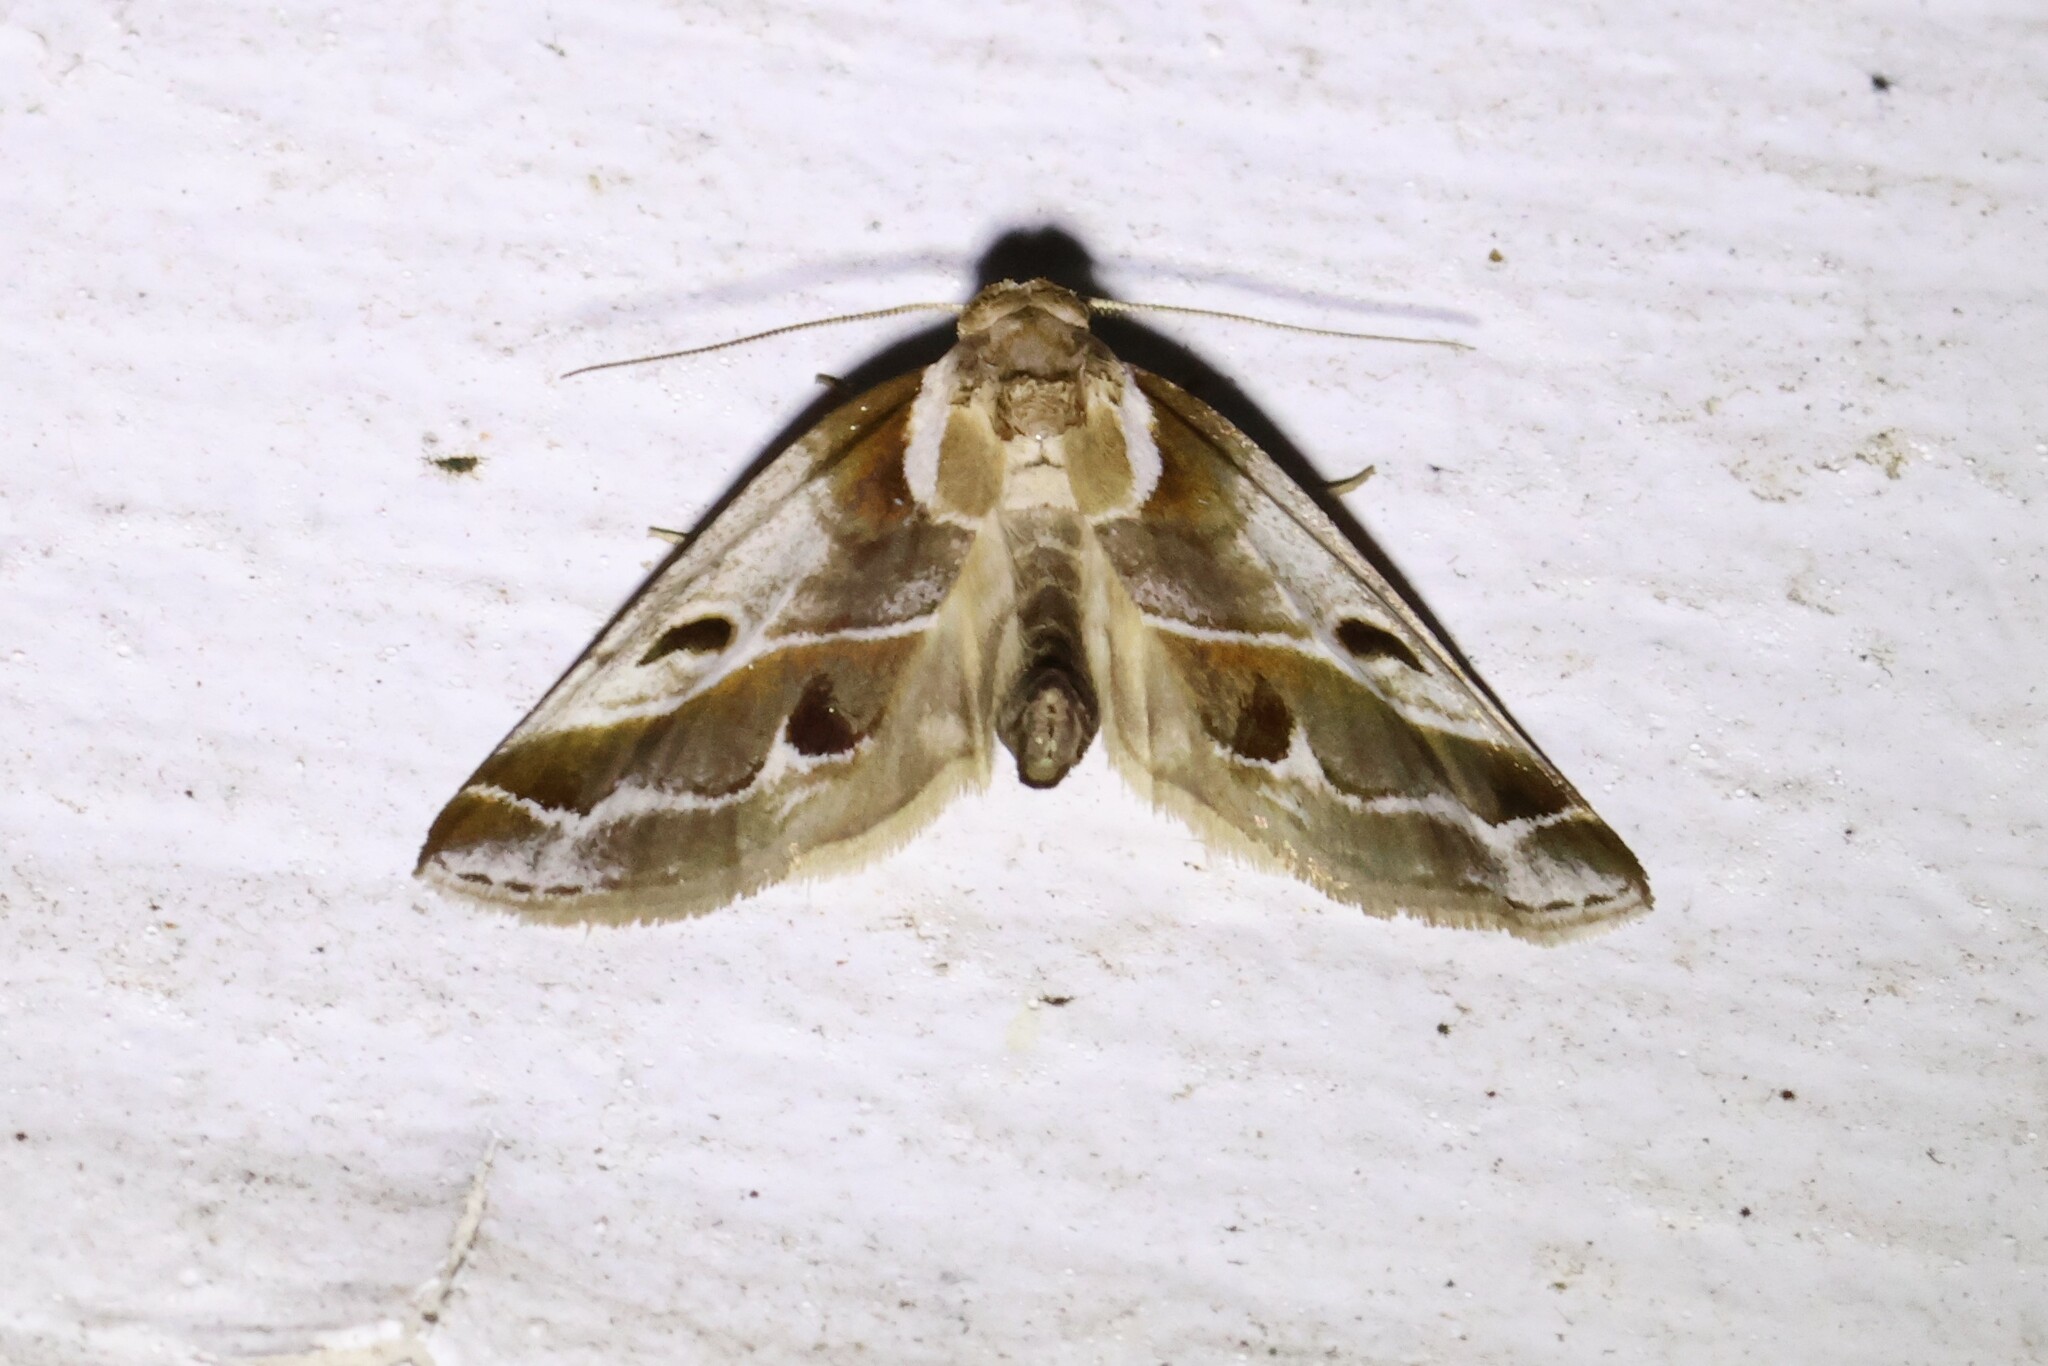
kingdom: Animalia
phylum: Arthropoda
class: Insecta
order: Lepidoptera
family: Nolidae
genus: Baileya
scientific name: Baileya doubledayi
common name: Doubleday's baileya moth
